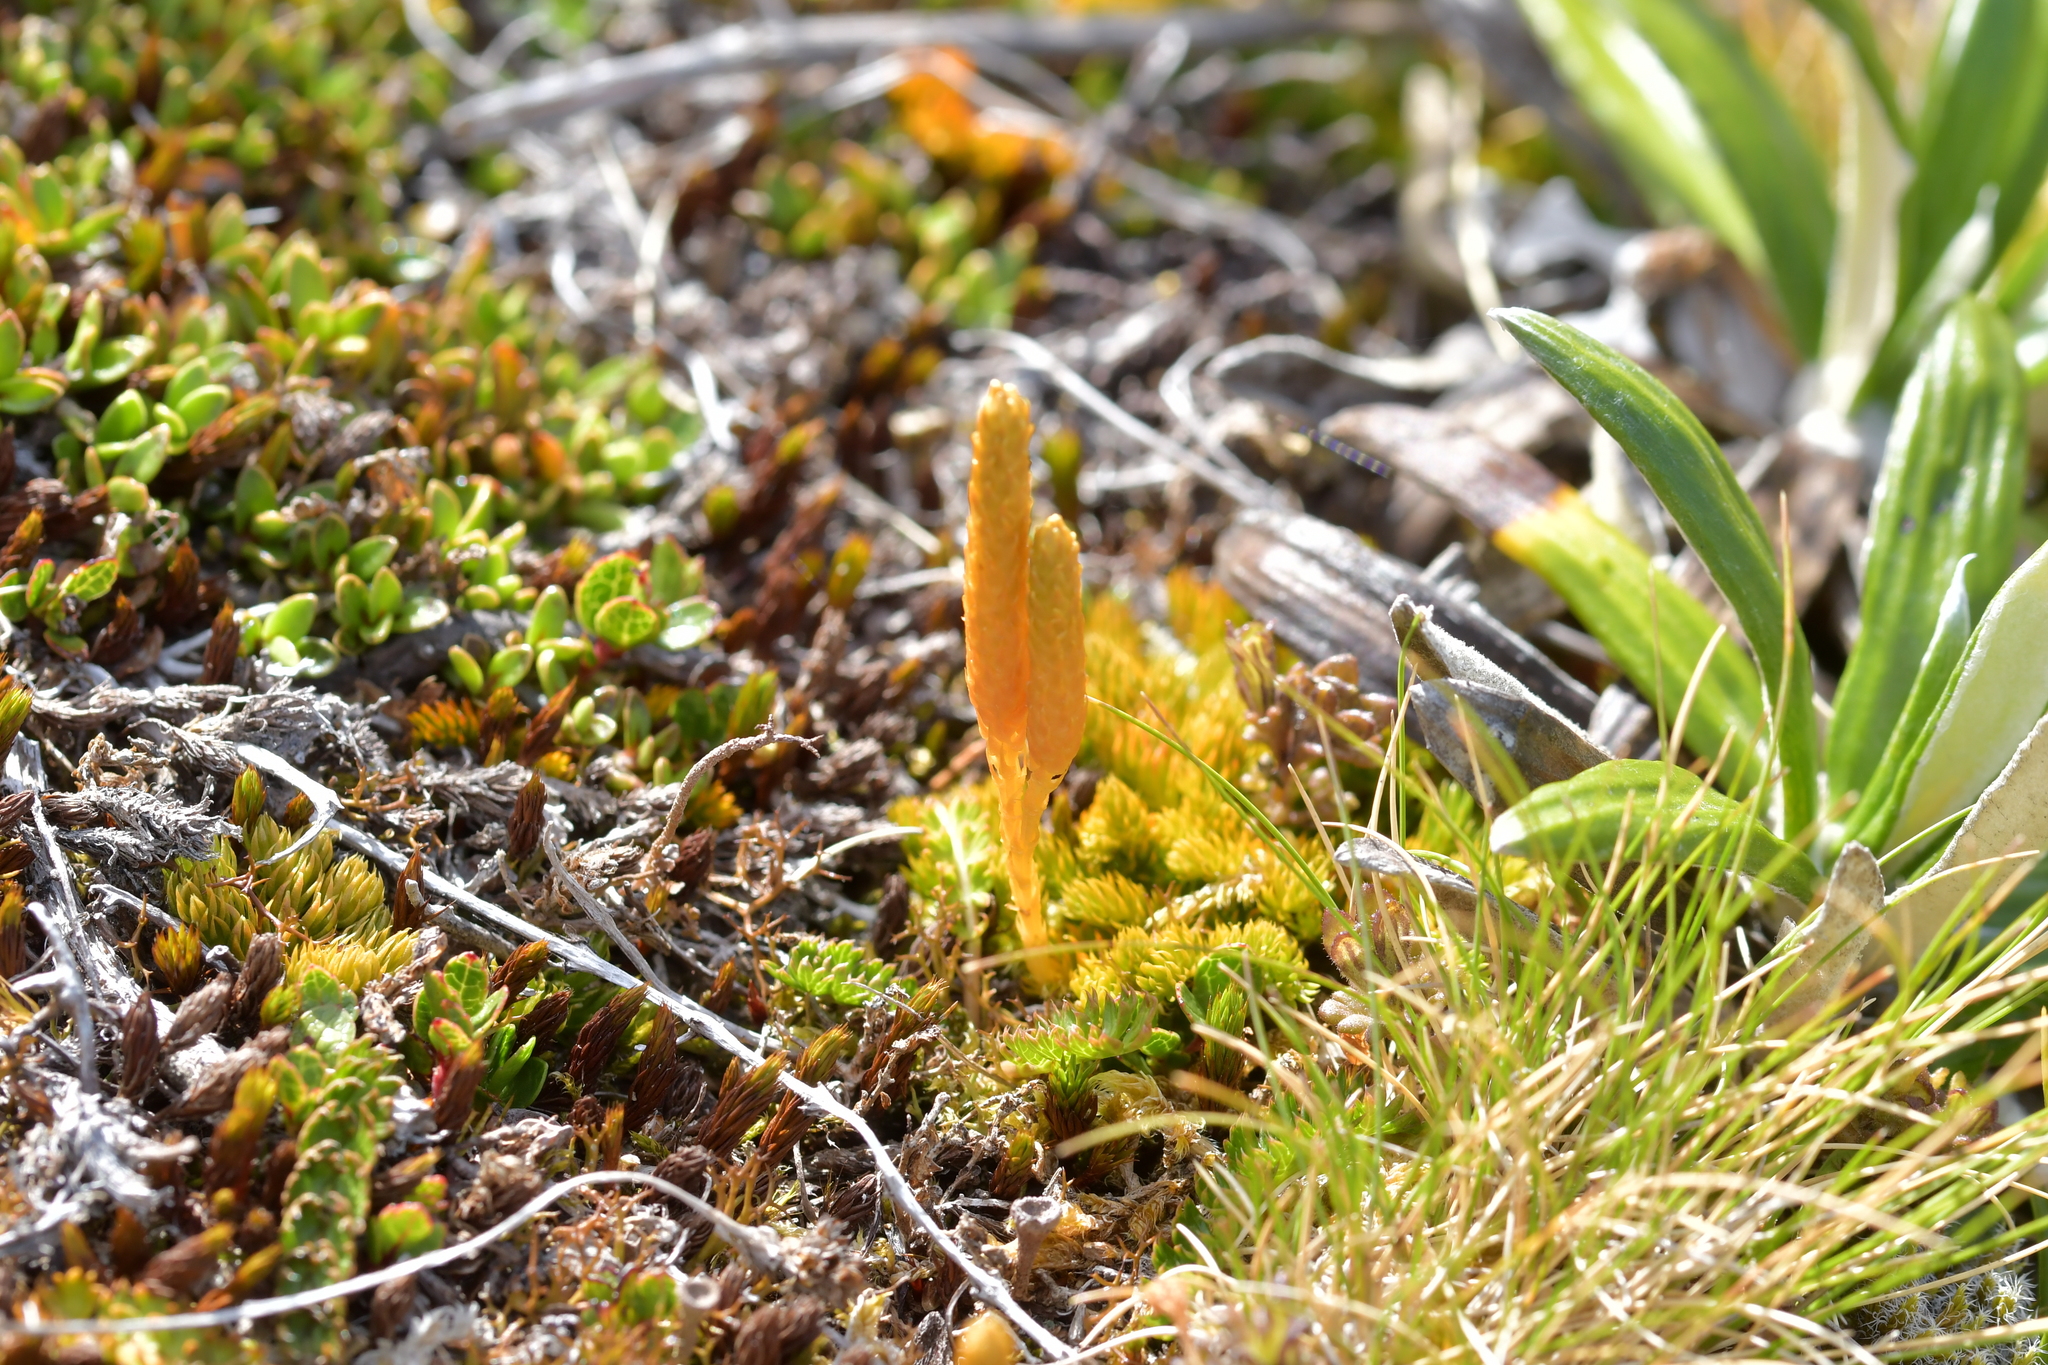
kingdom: Plantae
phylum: Tracheophyta
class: Lycopodiopsida
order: Lycopodiales
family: Lycopodiaceae
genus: Austrolycopodium
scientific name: Austrolycopodium fastigiatum
